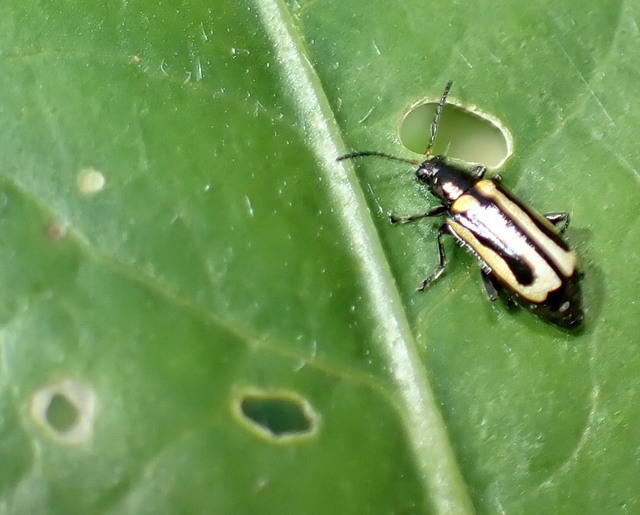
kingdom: Animalia
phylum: Arthropoda
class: Insecta
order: Coleoptera
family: Chrysomelidae
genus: Agasicles
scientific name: Agasicles hygrophila
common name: Alligatorweed flea beetle
